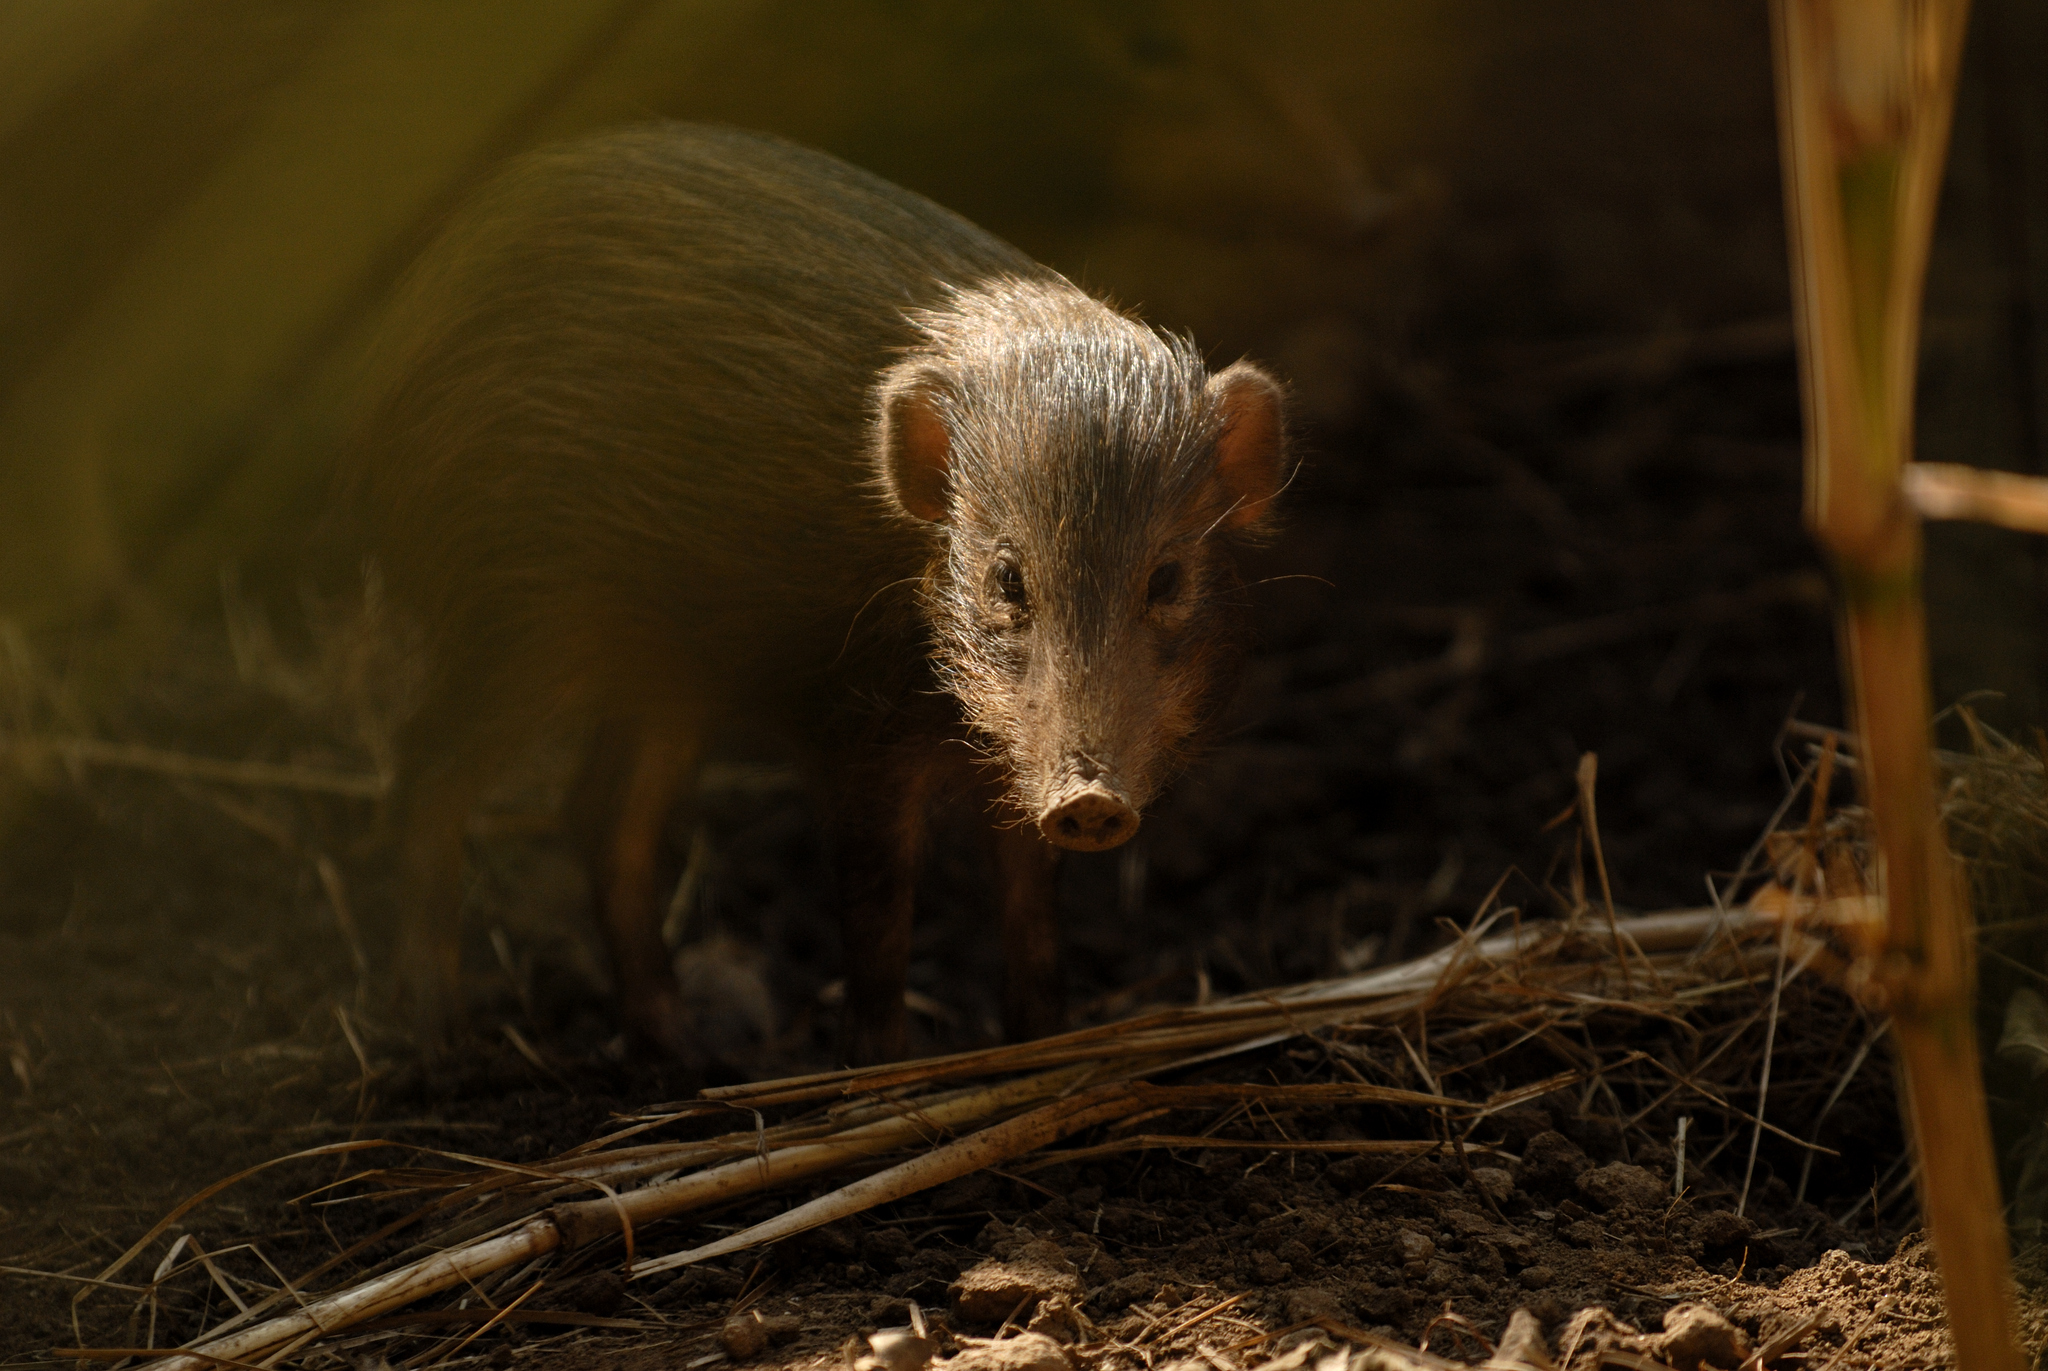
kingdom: Animalia
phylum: Chordata
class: Mammalia
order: Artiodactyla
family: Suidae
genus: Sus
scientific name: Sus salvanius
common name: Pygmy hog
